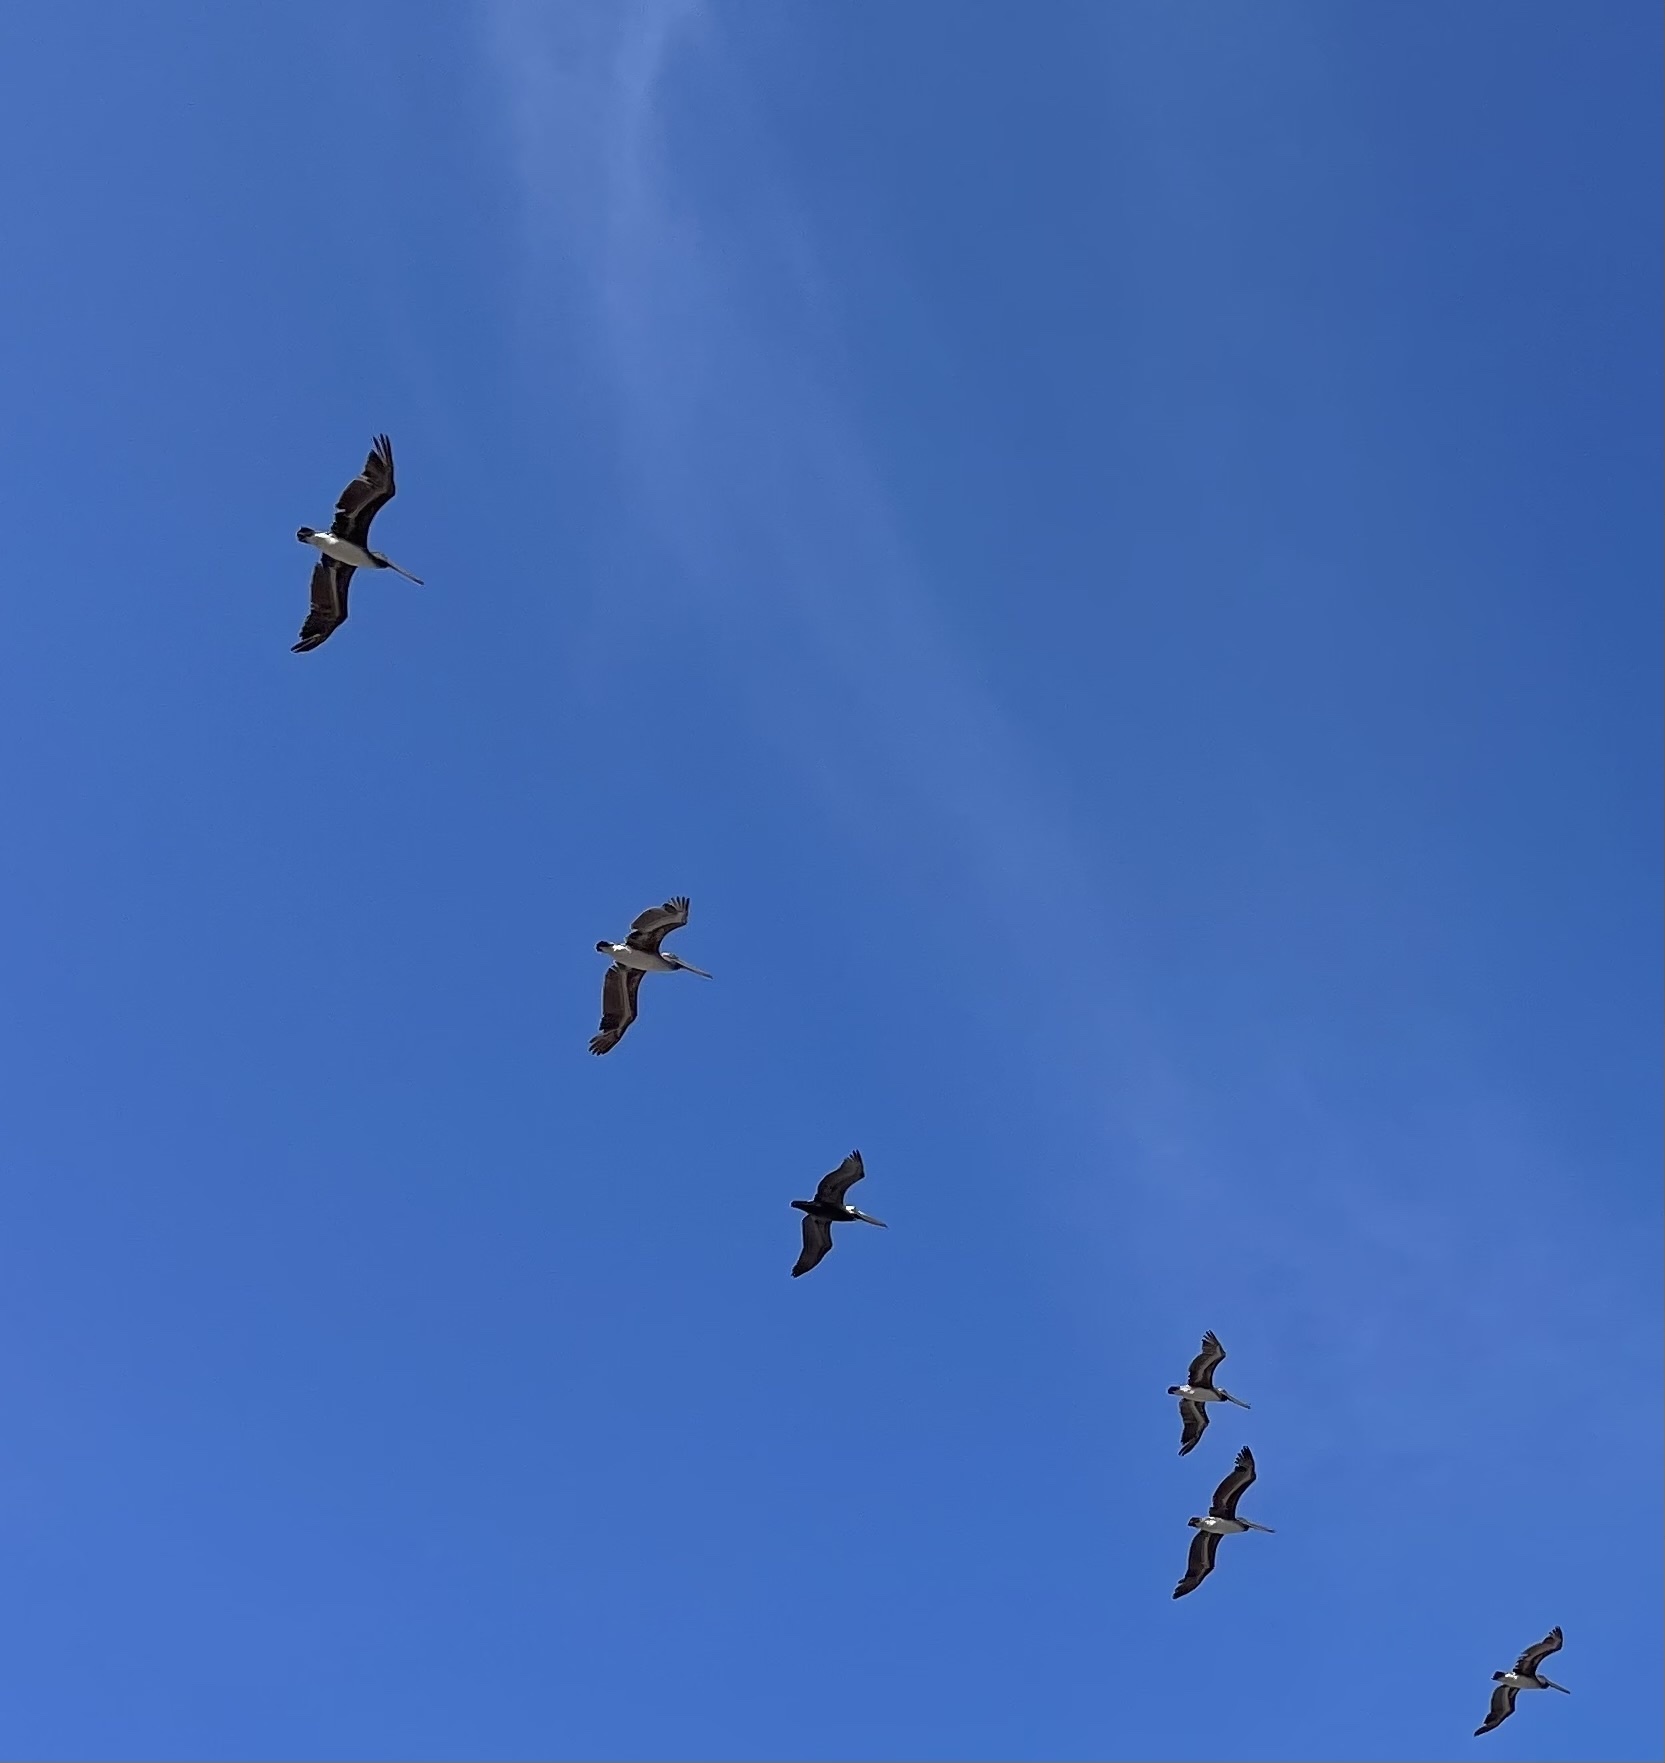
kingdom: Animalia
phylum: Chordata
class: Aves
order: Pelecaniformes
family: Pelecanidae
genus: Pelecanus
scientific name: Pelecanus occidentalis
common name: Brown pelican
